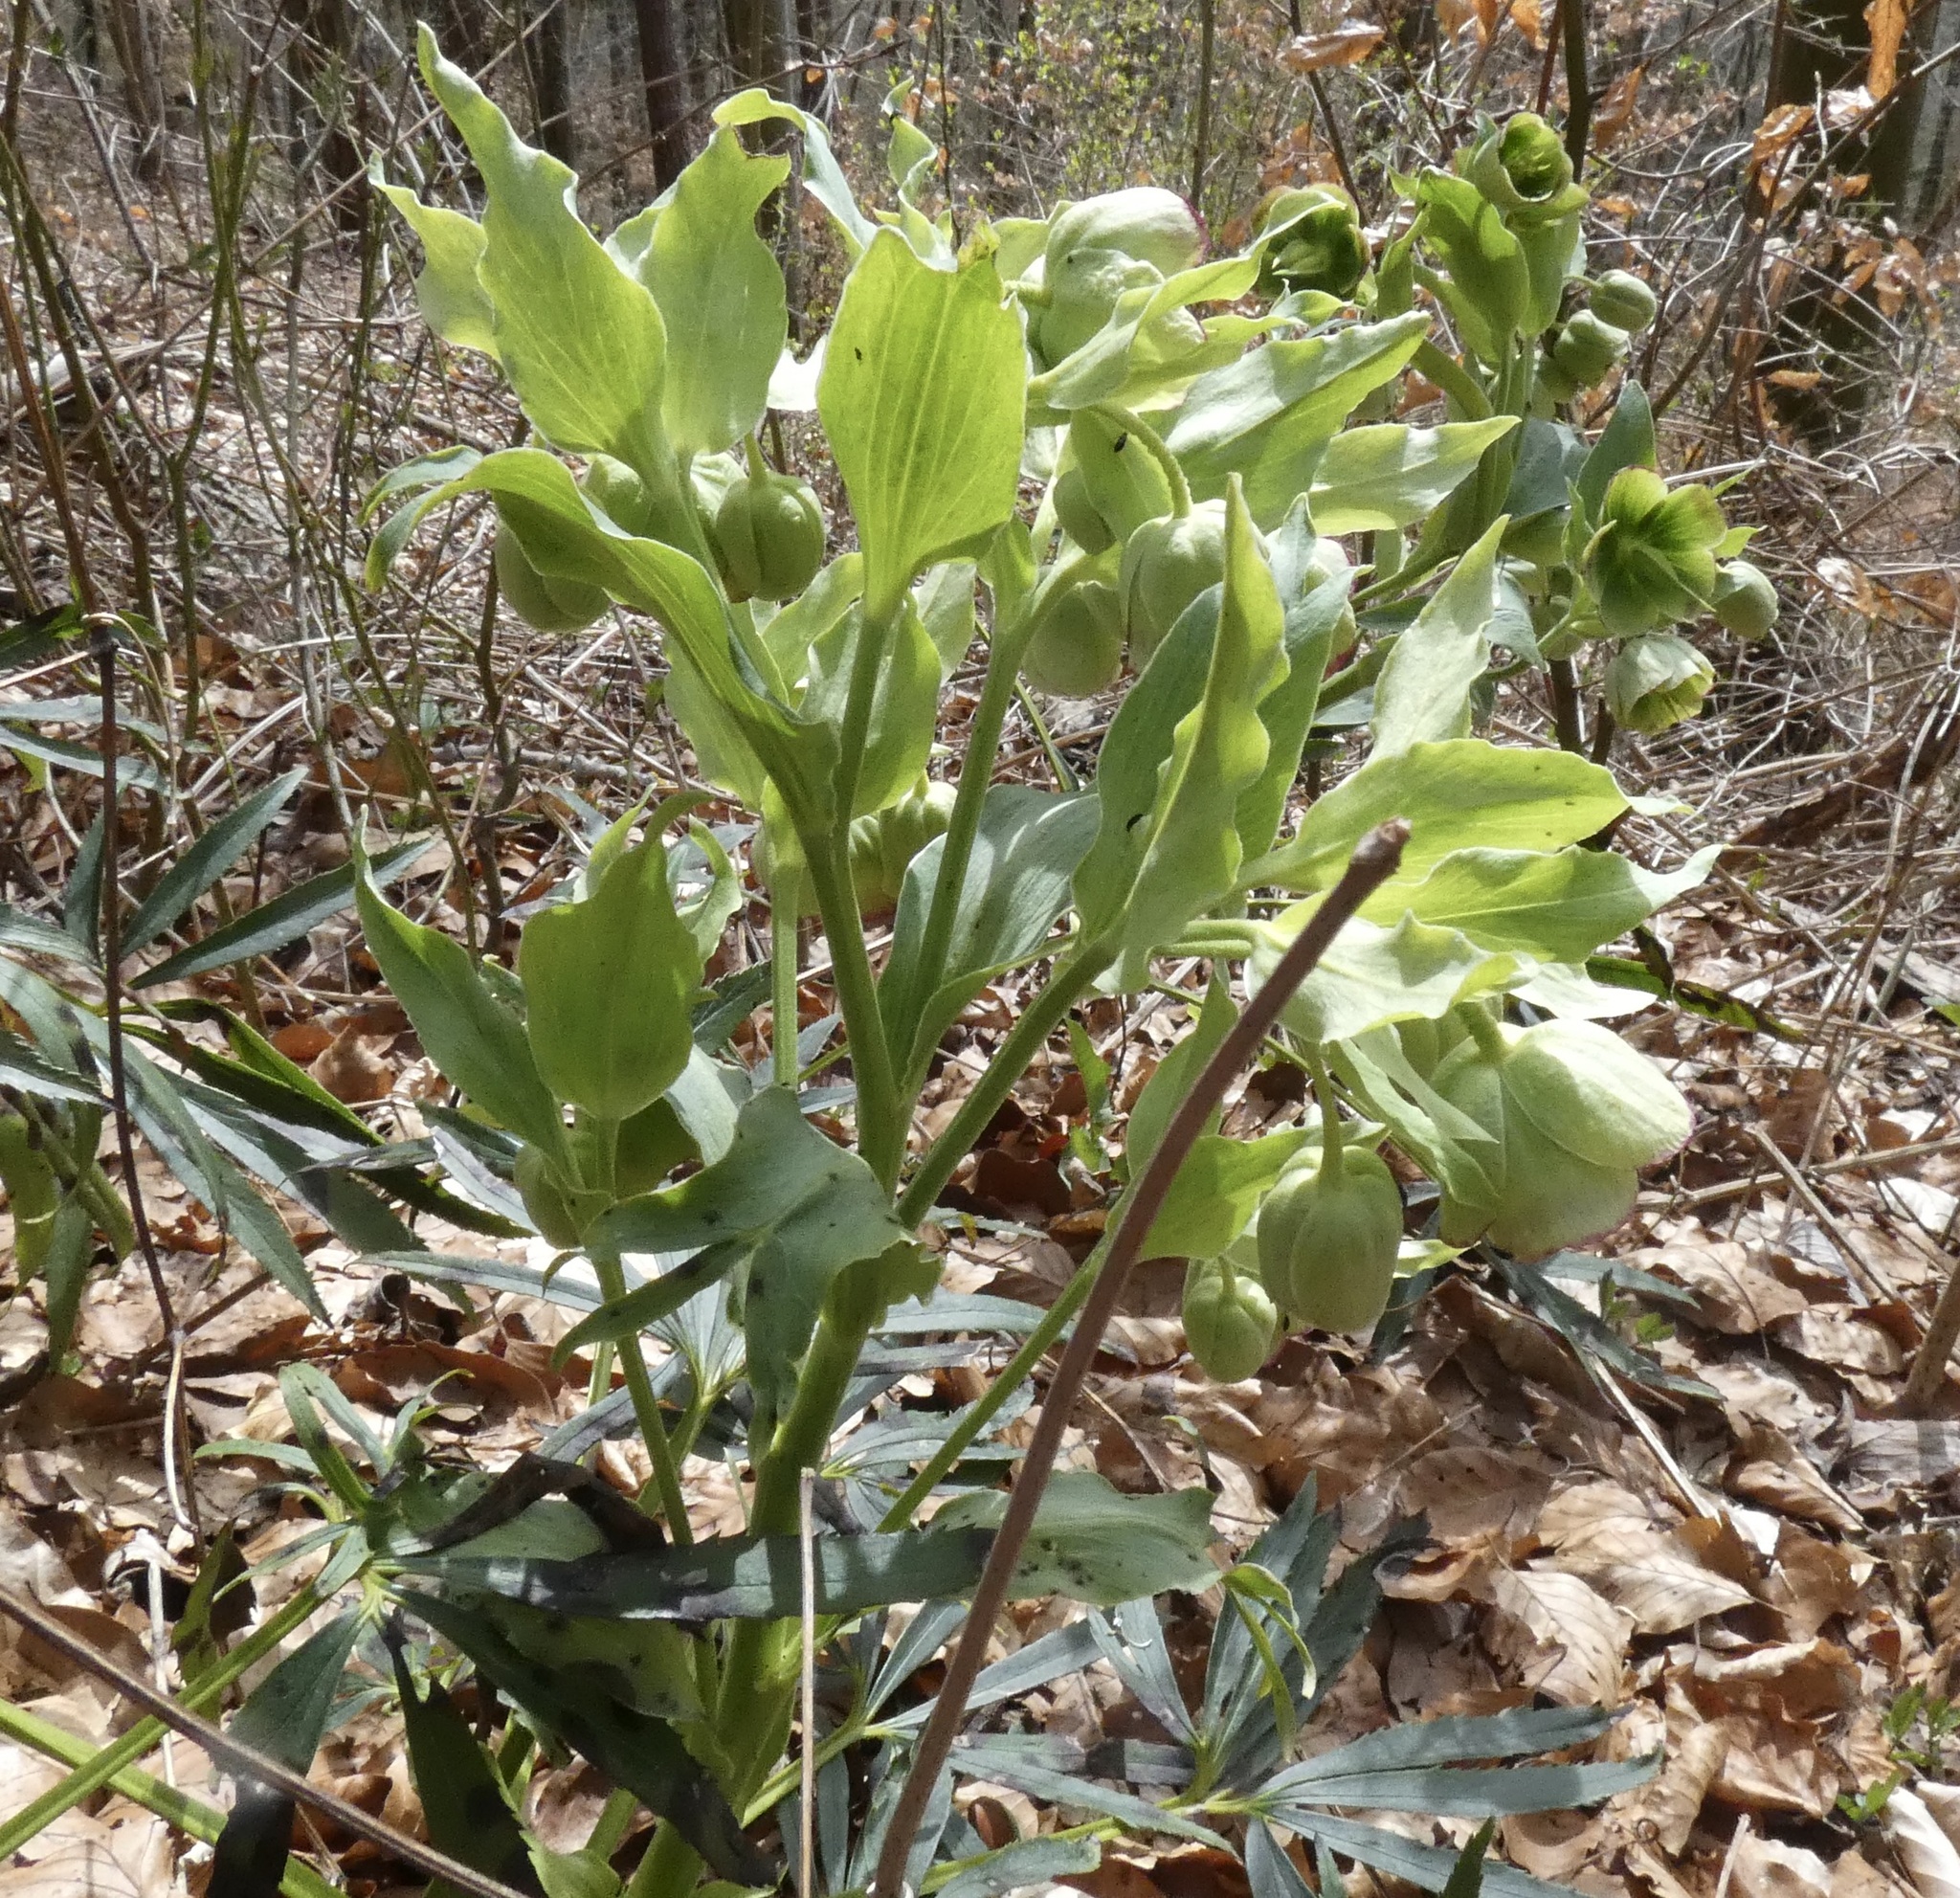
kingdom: Plantae
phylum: Tracheophyta
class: Magnoliopsida
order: Ranunculales
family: Ranunculaceae
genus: Helleborus
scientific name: Helleborus foetidus
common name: Stinking hellebore
